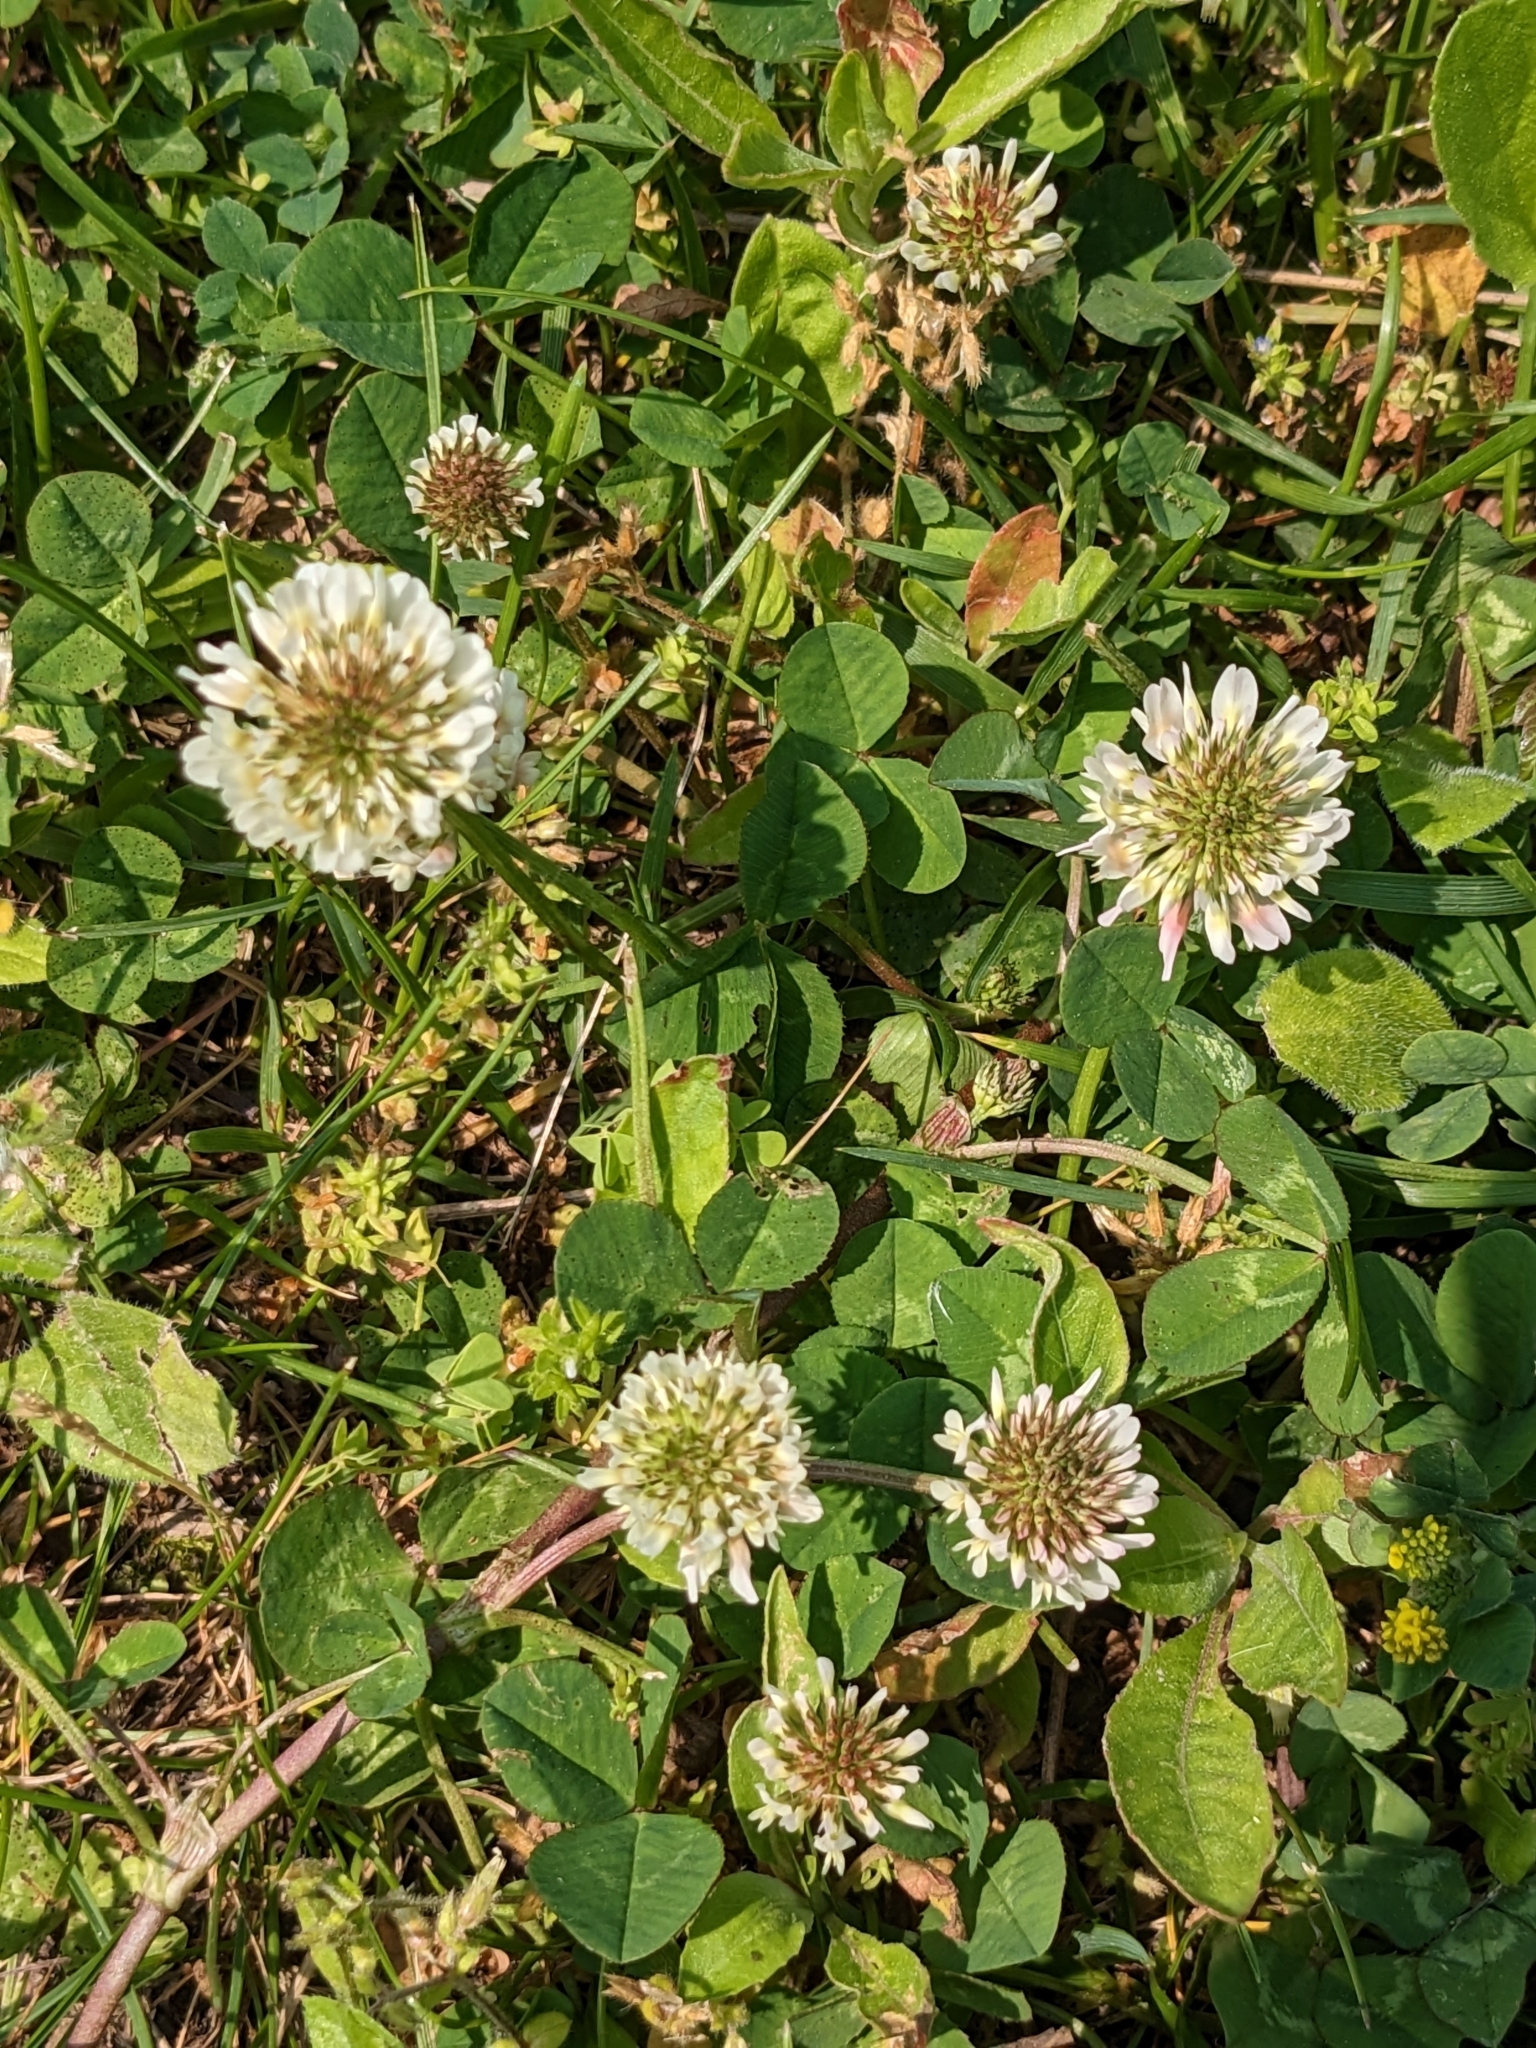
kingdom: Plantae
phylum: Tracheophyta
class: Magnoliopsida
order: Fabales
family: Fabaceae
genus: Trifolium
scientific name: Trifolium repens
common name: White clover
